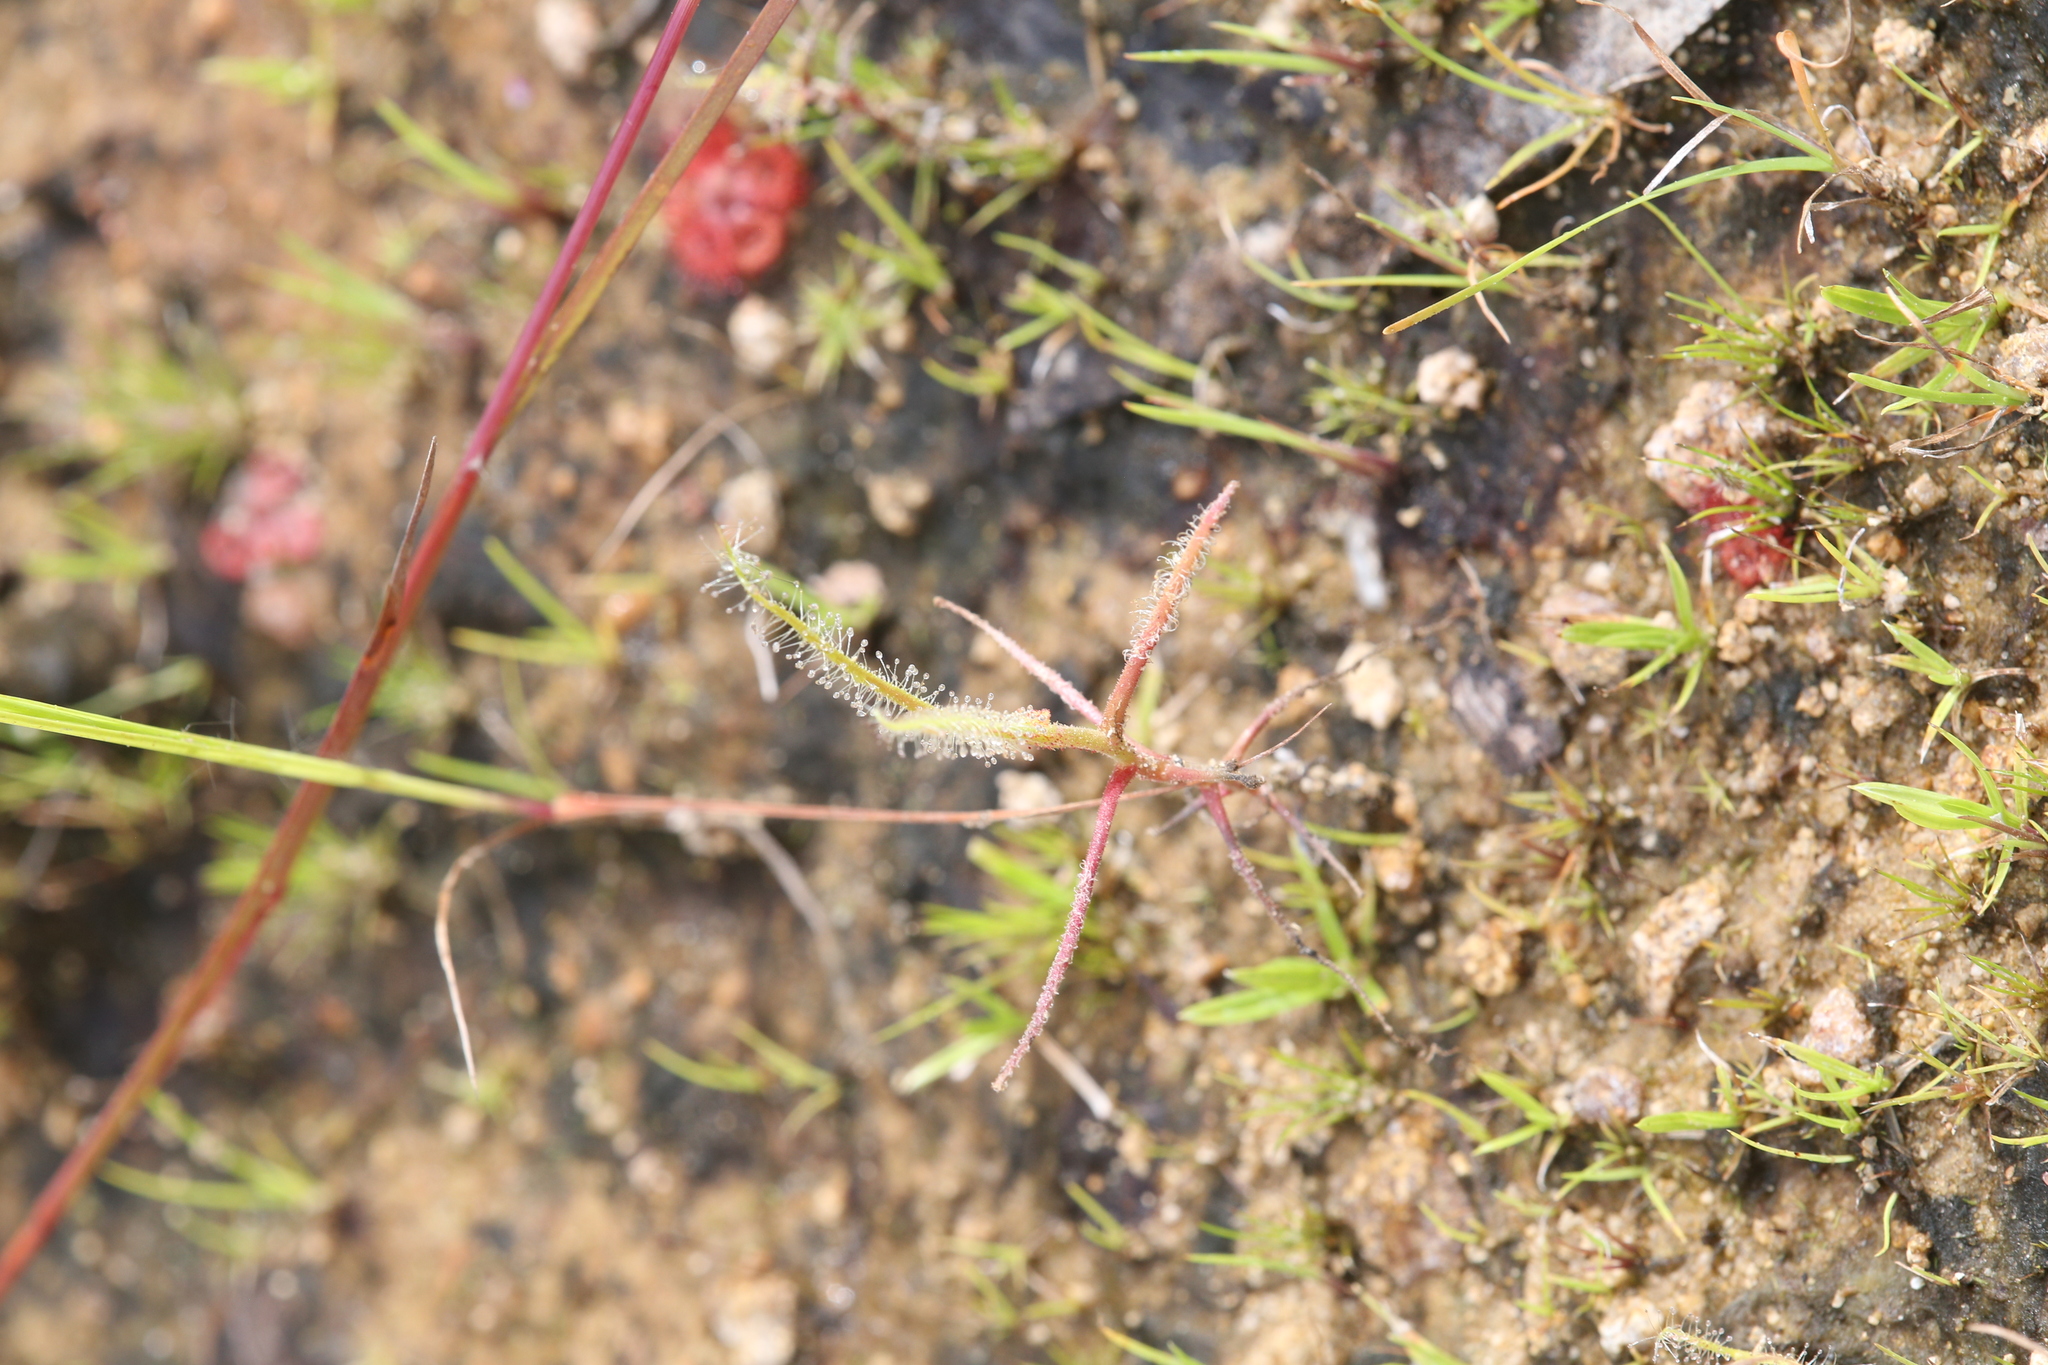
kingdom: Plantae
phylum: Tracheophyta
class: Magnoliopsida
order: Caryophyllales
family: Droseraceae
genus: Drosera
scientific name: Drosera indica
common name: Indian sundew
